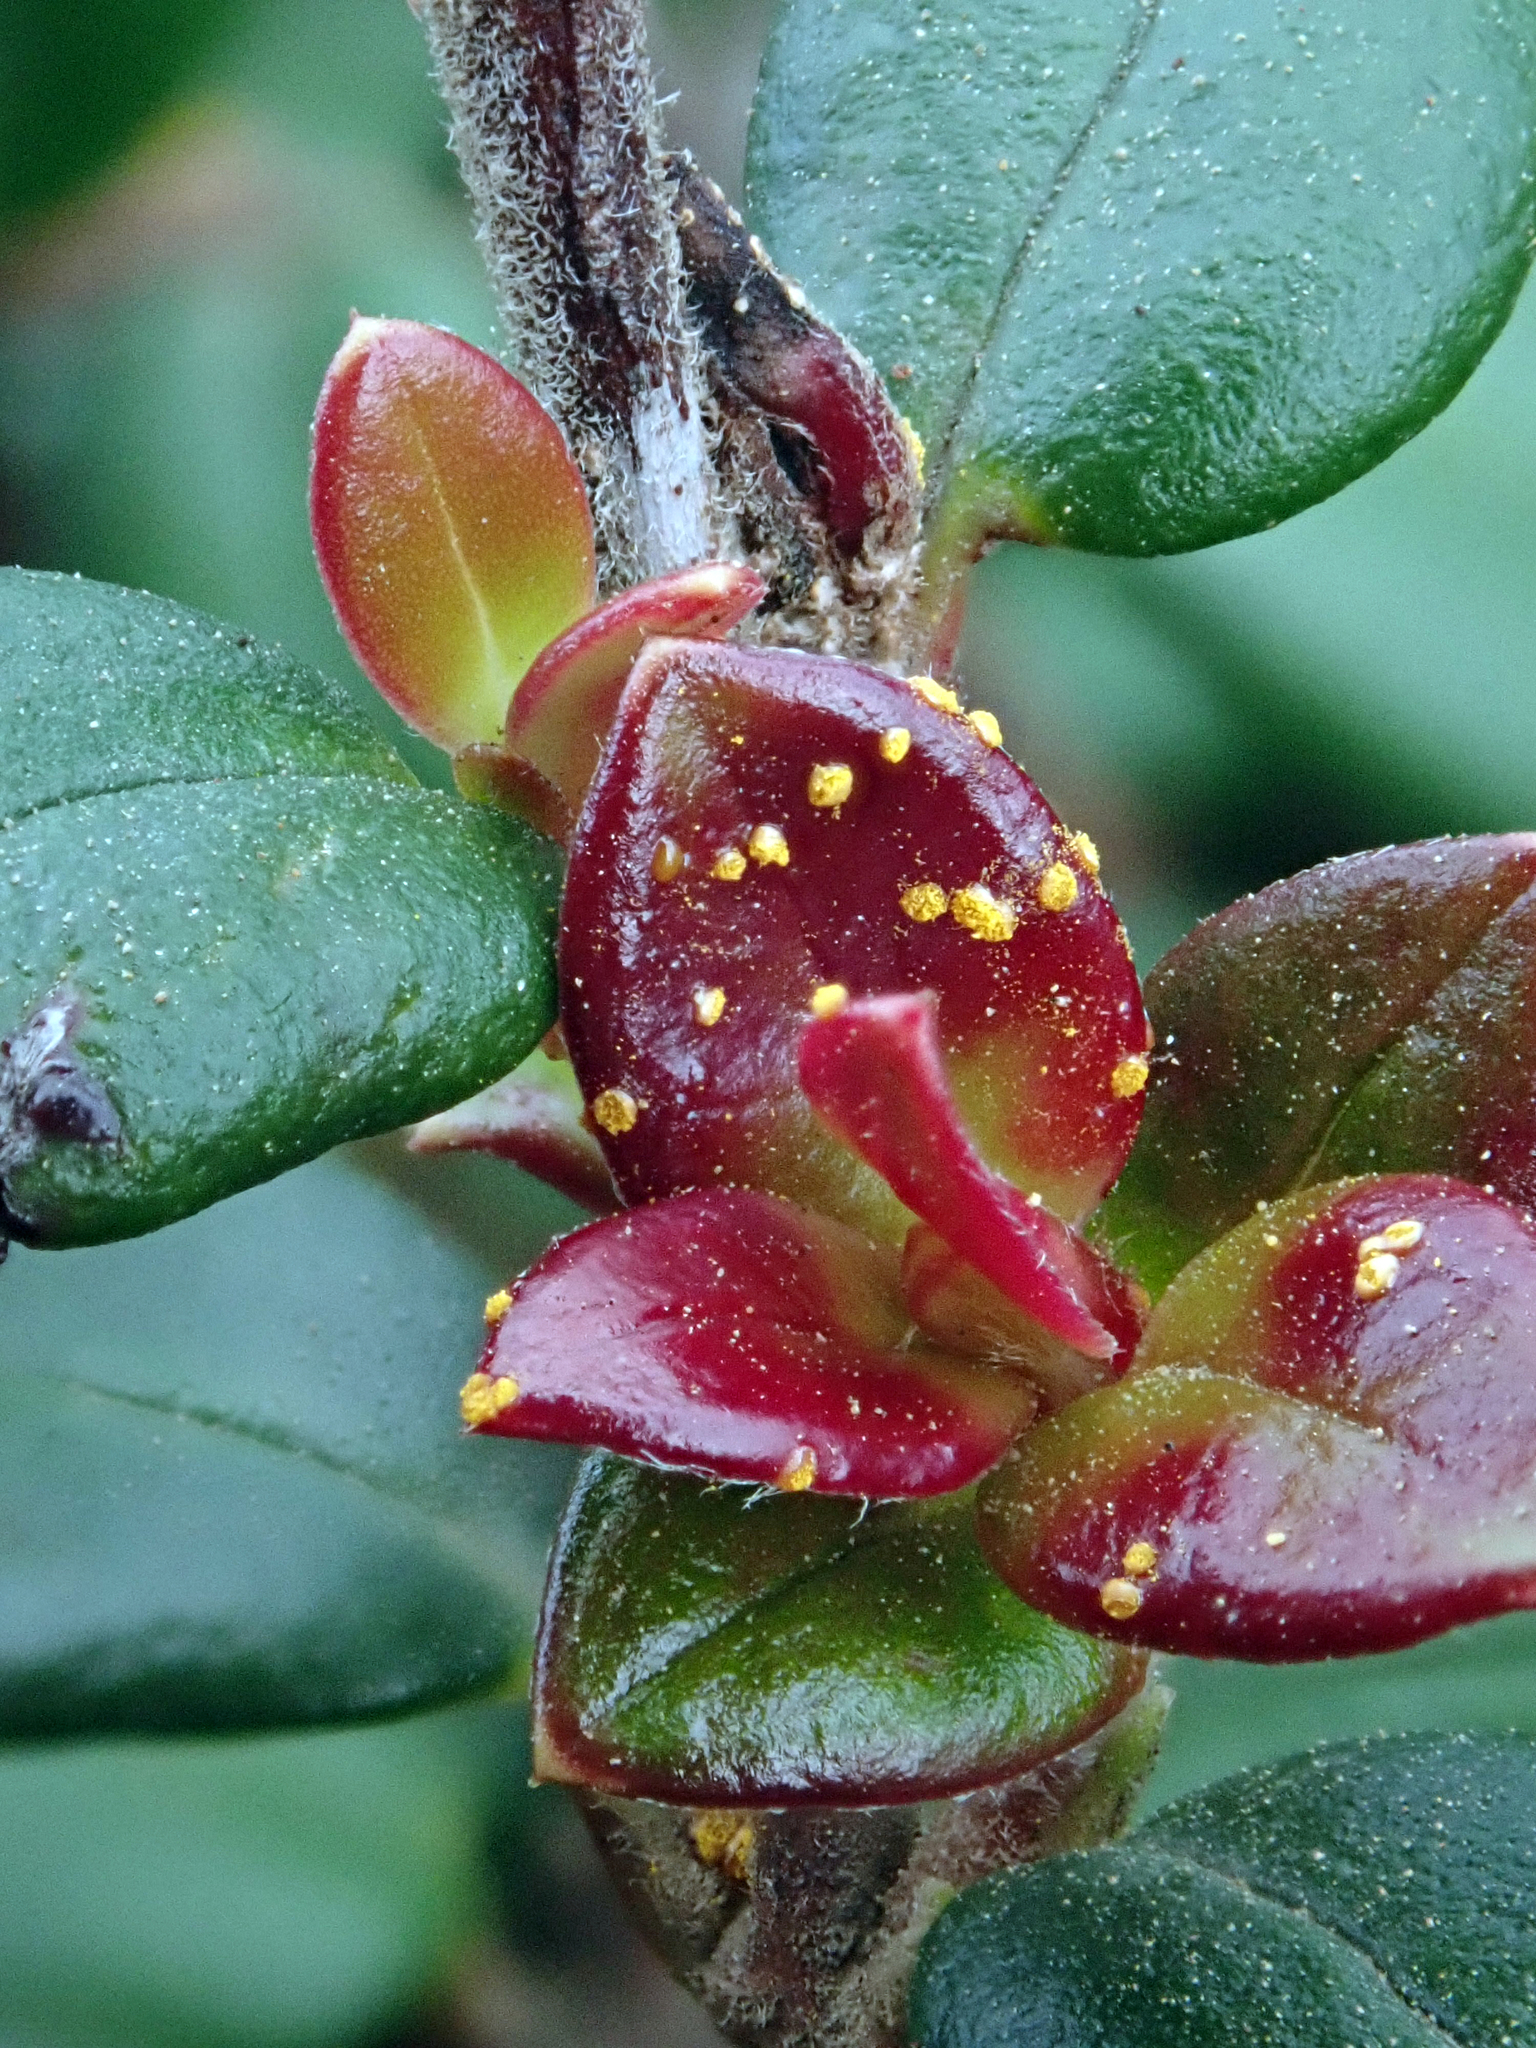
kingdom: Fungi
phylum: Basidiomycota
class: Pucciniomycetes
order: Pucciniales
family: Sphaerophragmiaceae
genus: Austropuccinia
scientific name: Austropuccinia psidii
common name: Myrtle rust
